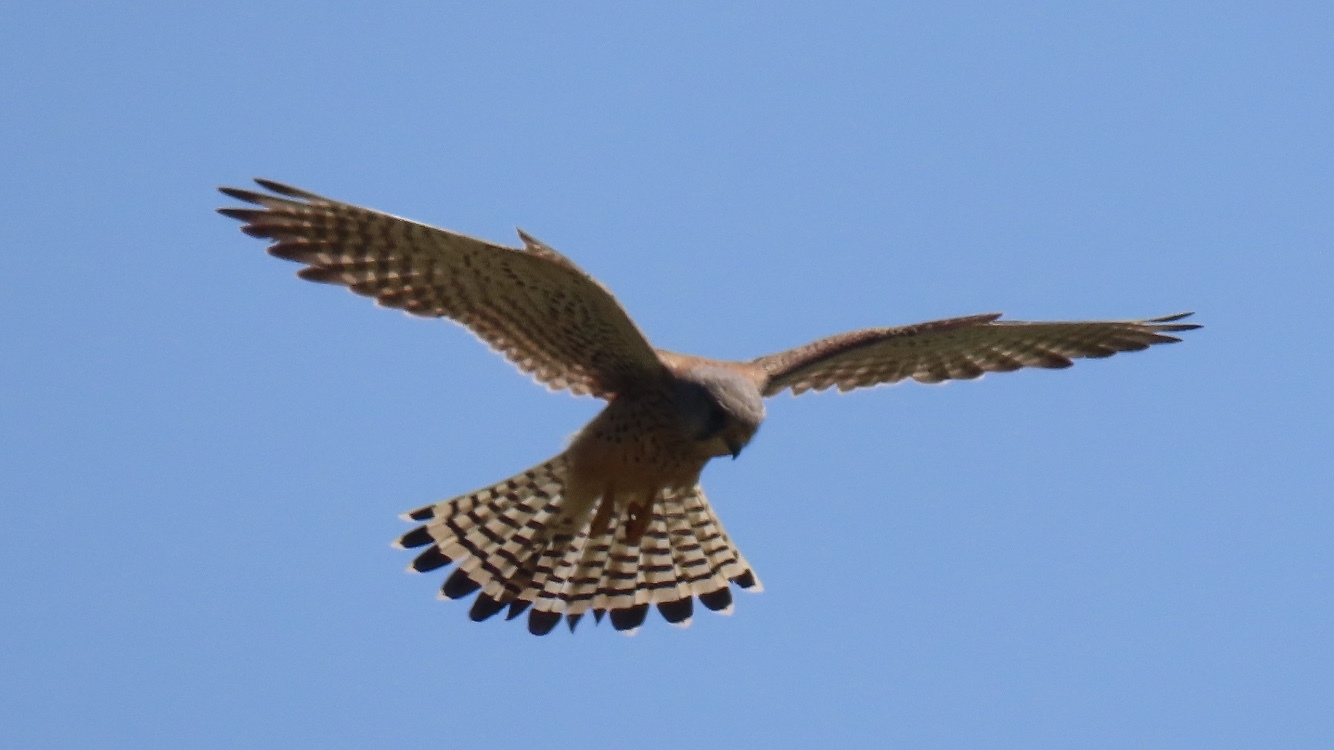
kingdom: Animalia
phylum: Chordata
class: Aves
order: Falconiformes
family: Falconidae
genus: Falco
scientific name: Falco tinnunculus
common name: Common kestrel
